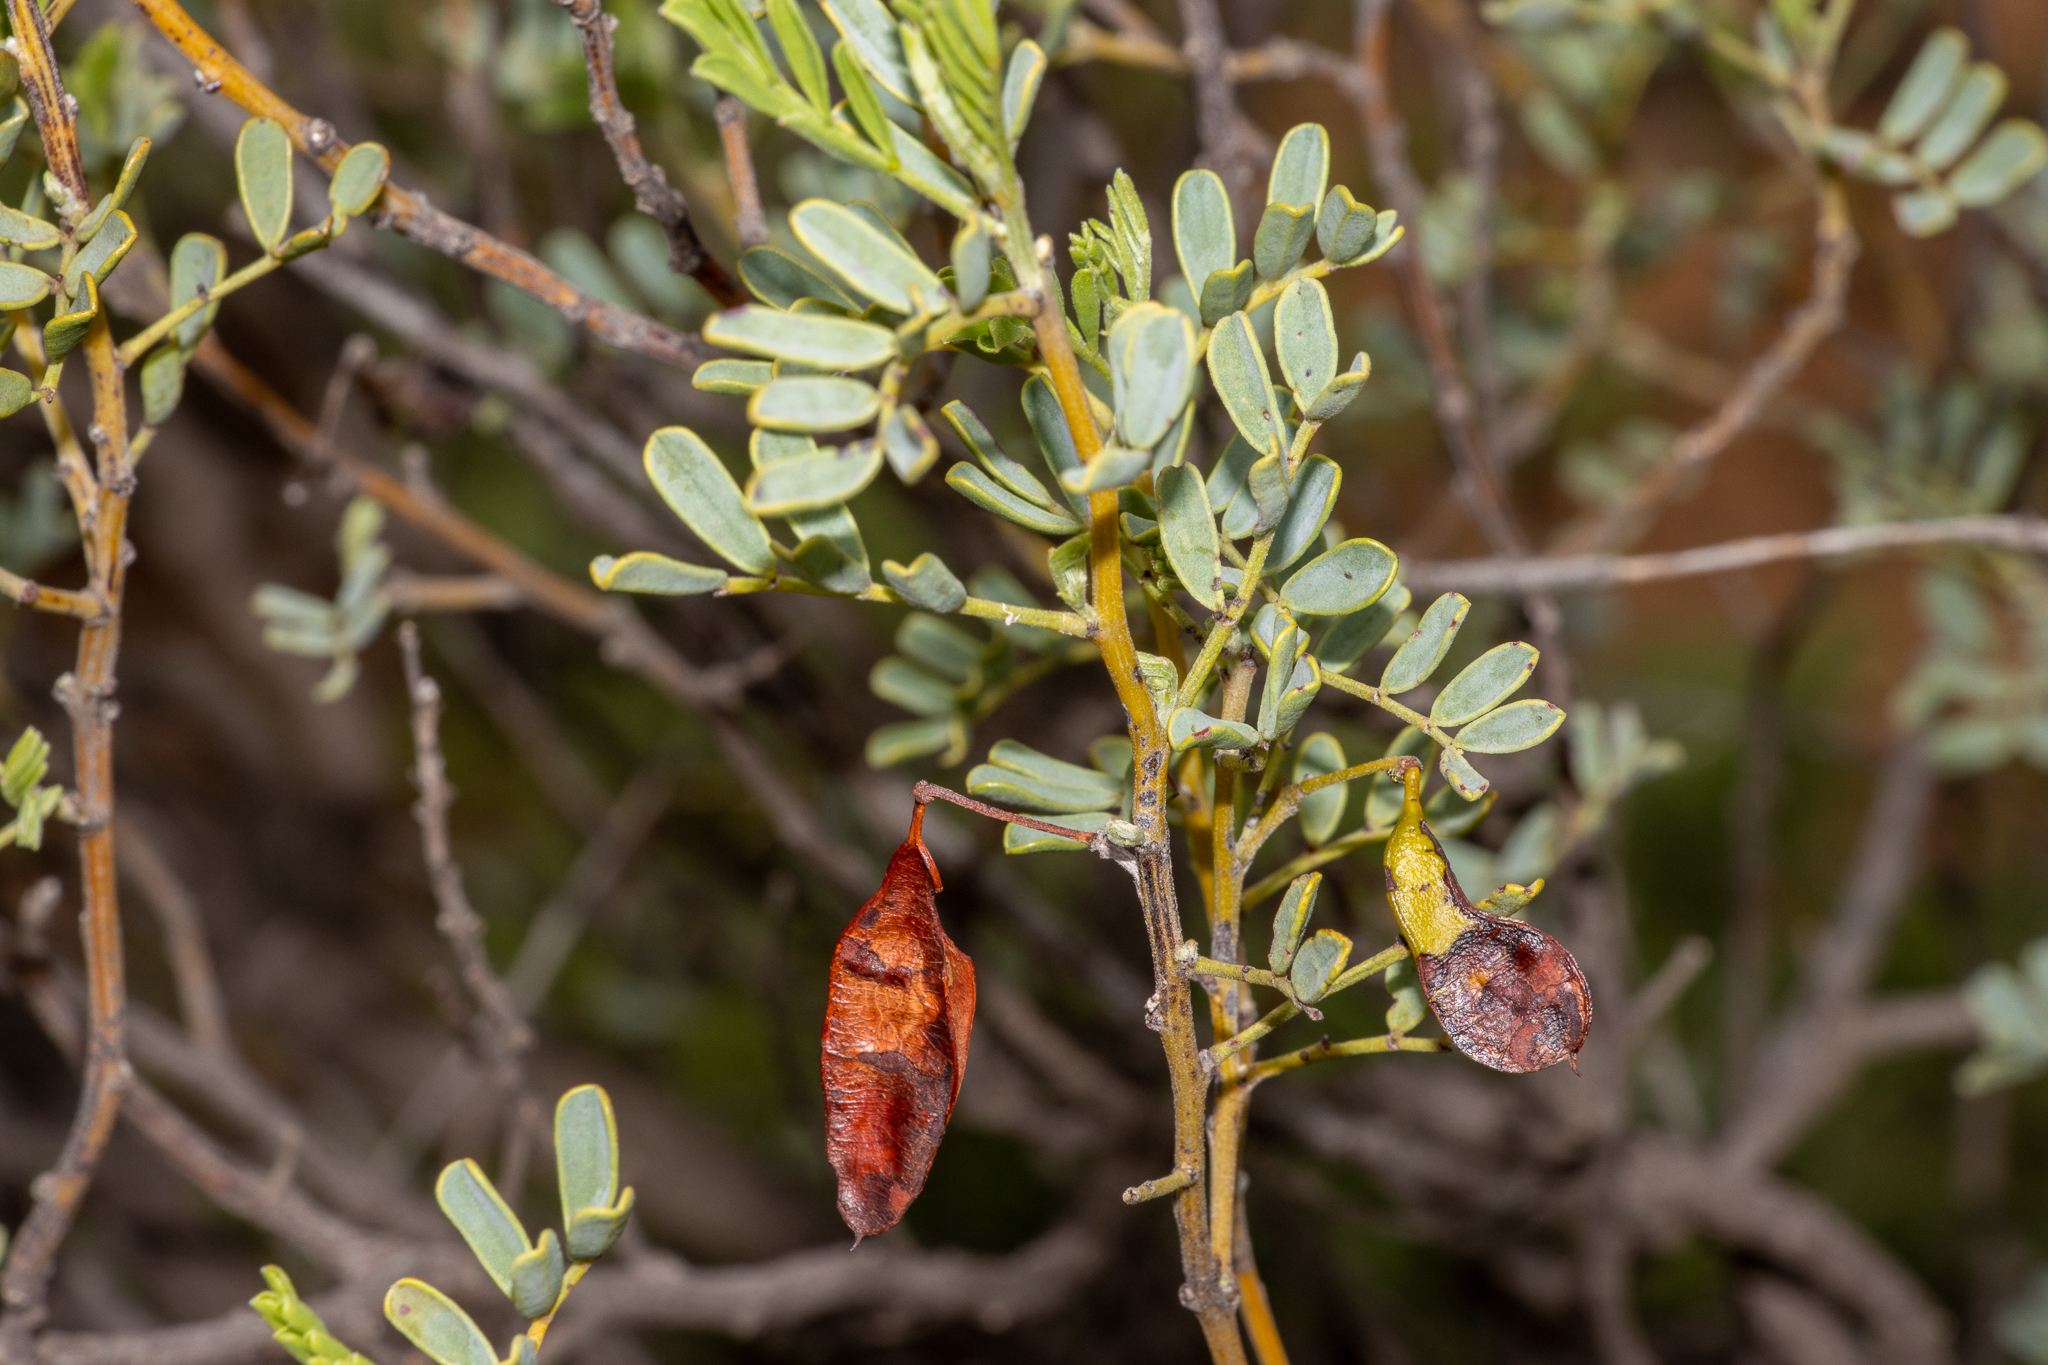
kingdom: Plantae
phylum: Tracheophyta
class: Magnoliopsida
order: Fabales
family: Fabaceae
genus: Senna
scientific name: Senna artemisioides
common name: Burnt-leaved acacia
